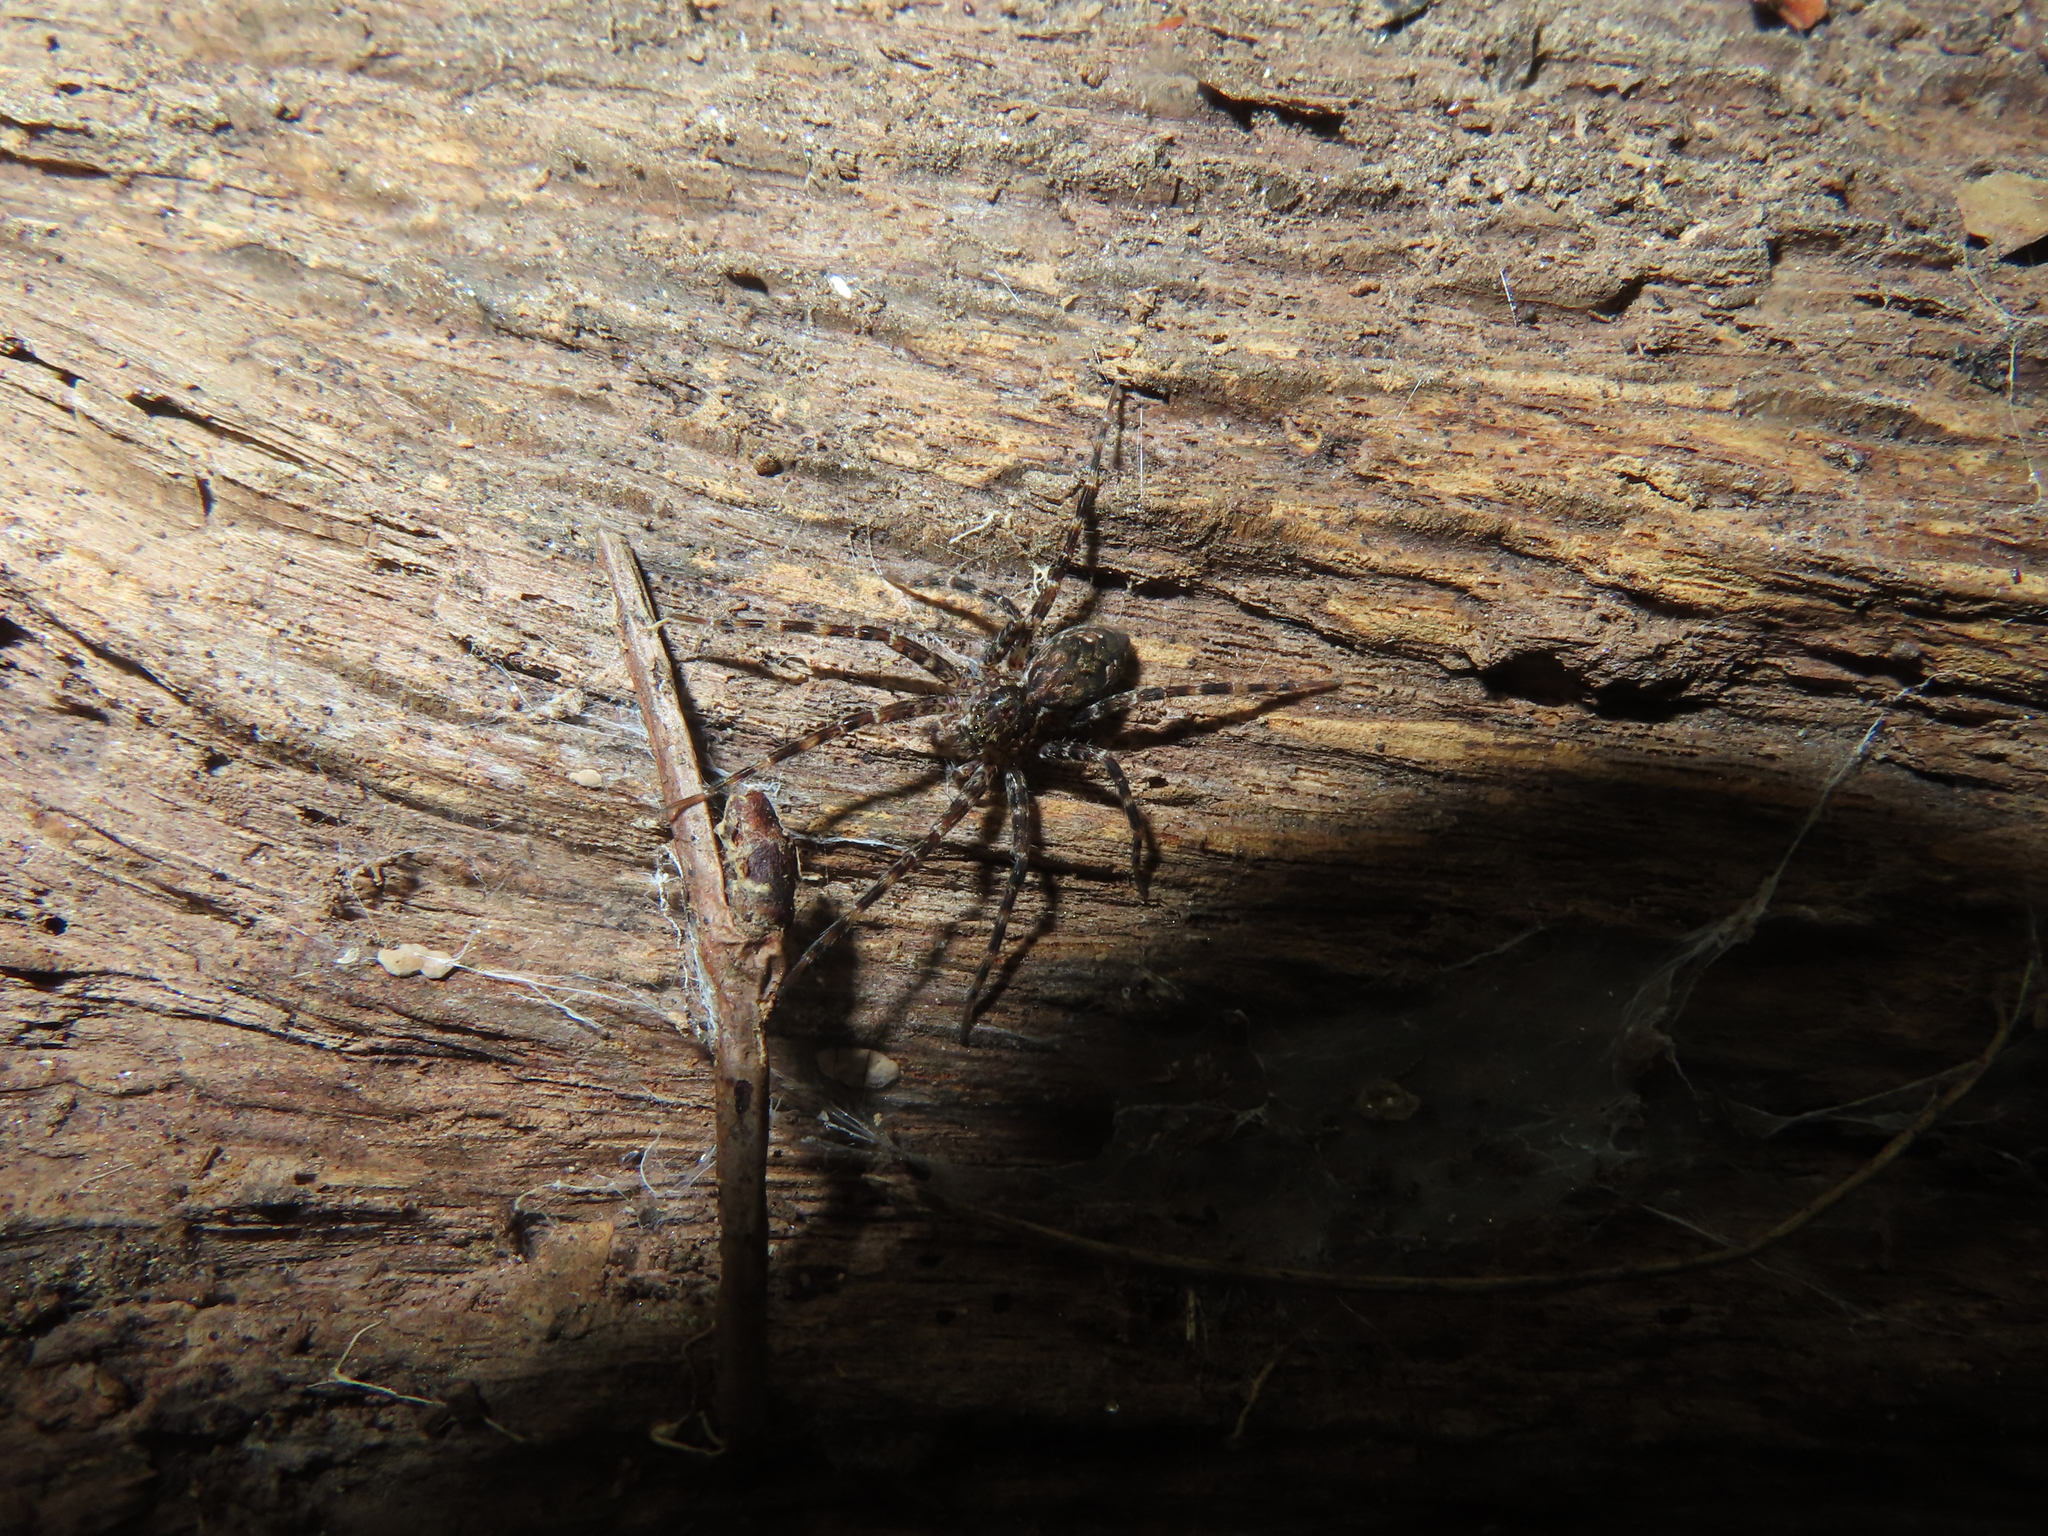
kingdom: Animalia
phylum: Arthropoda
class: Arachnida
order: Araneae
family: Pisauridae
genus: Dolomedes
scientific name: Dolomedes tenebrosus
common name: Dark fishing spider
